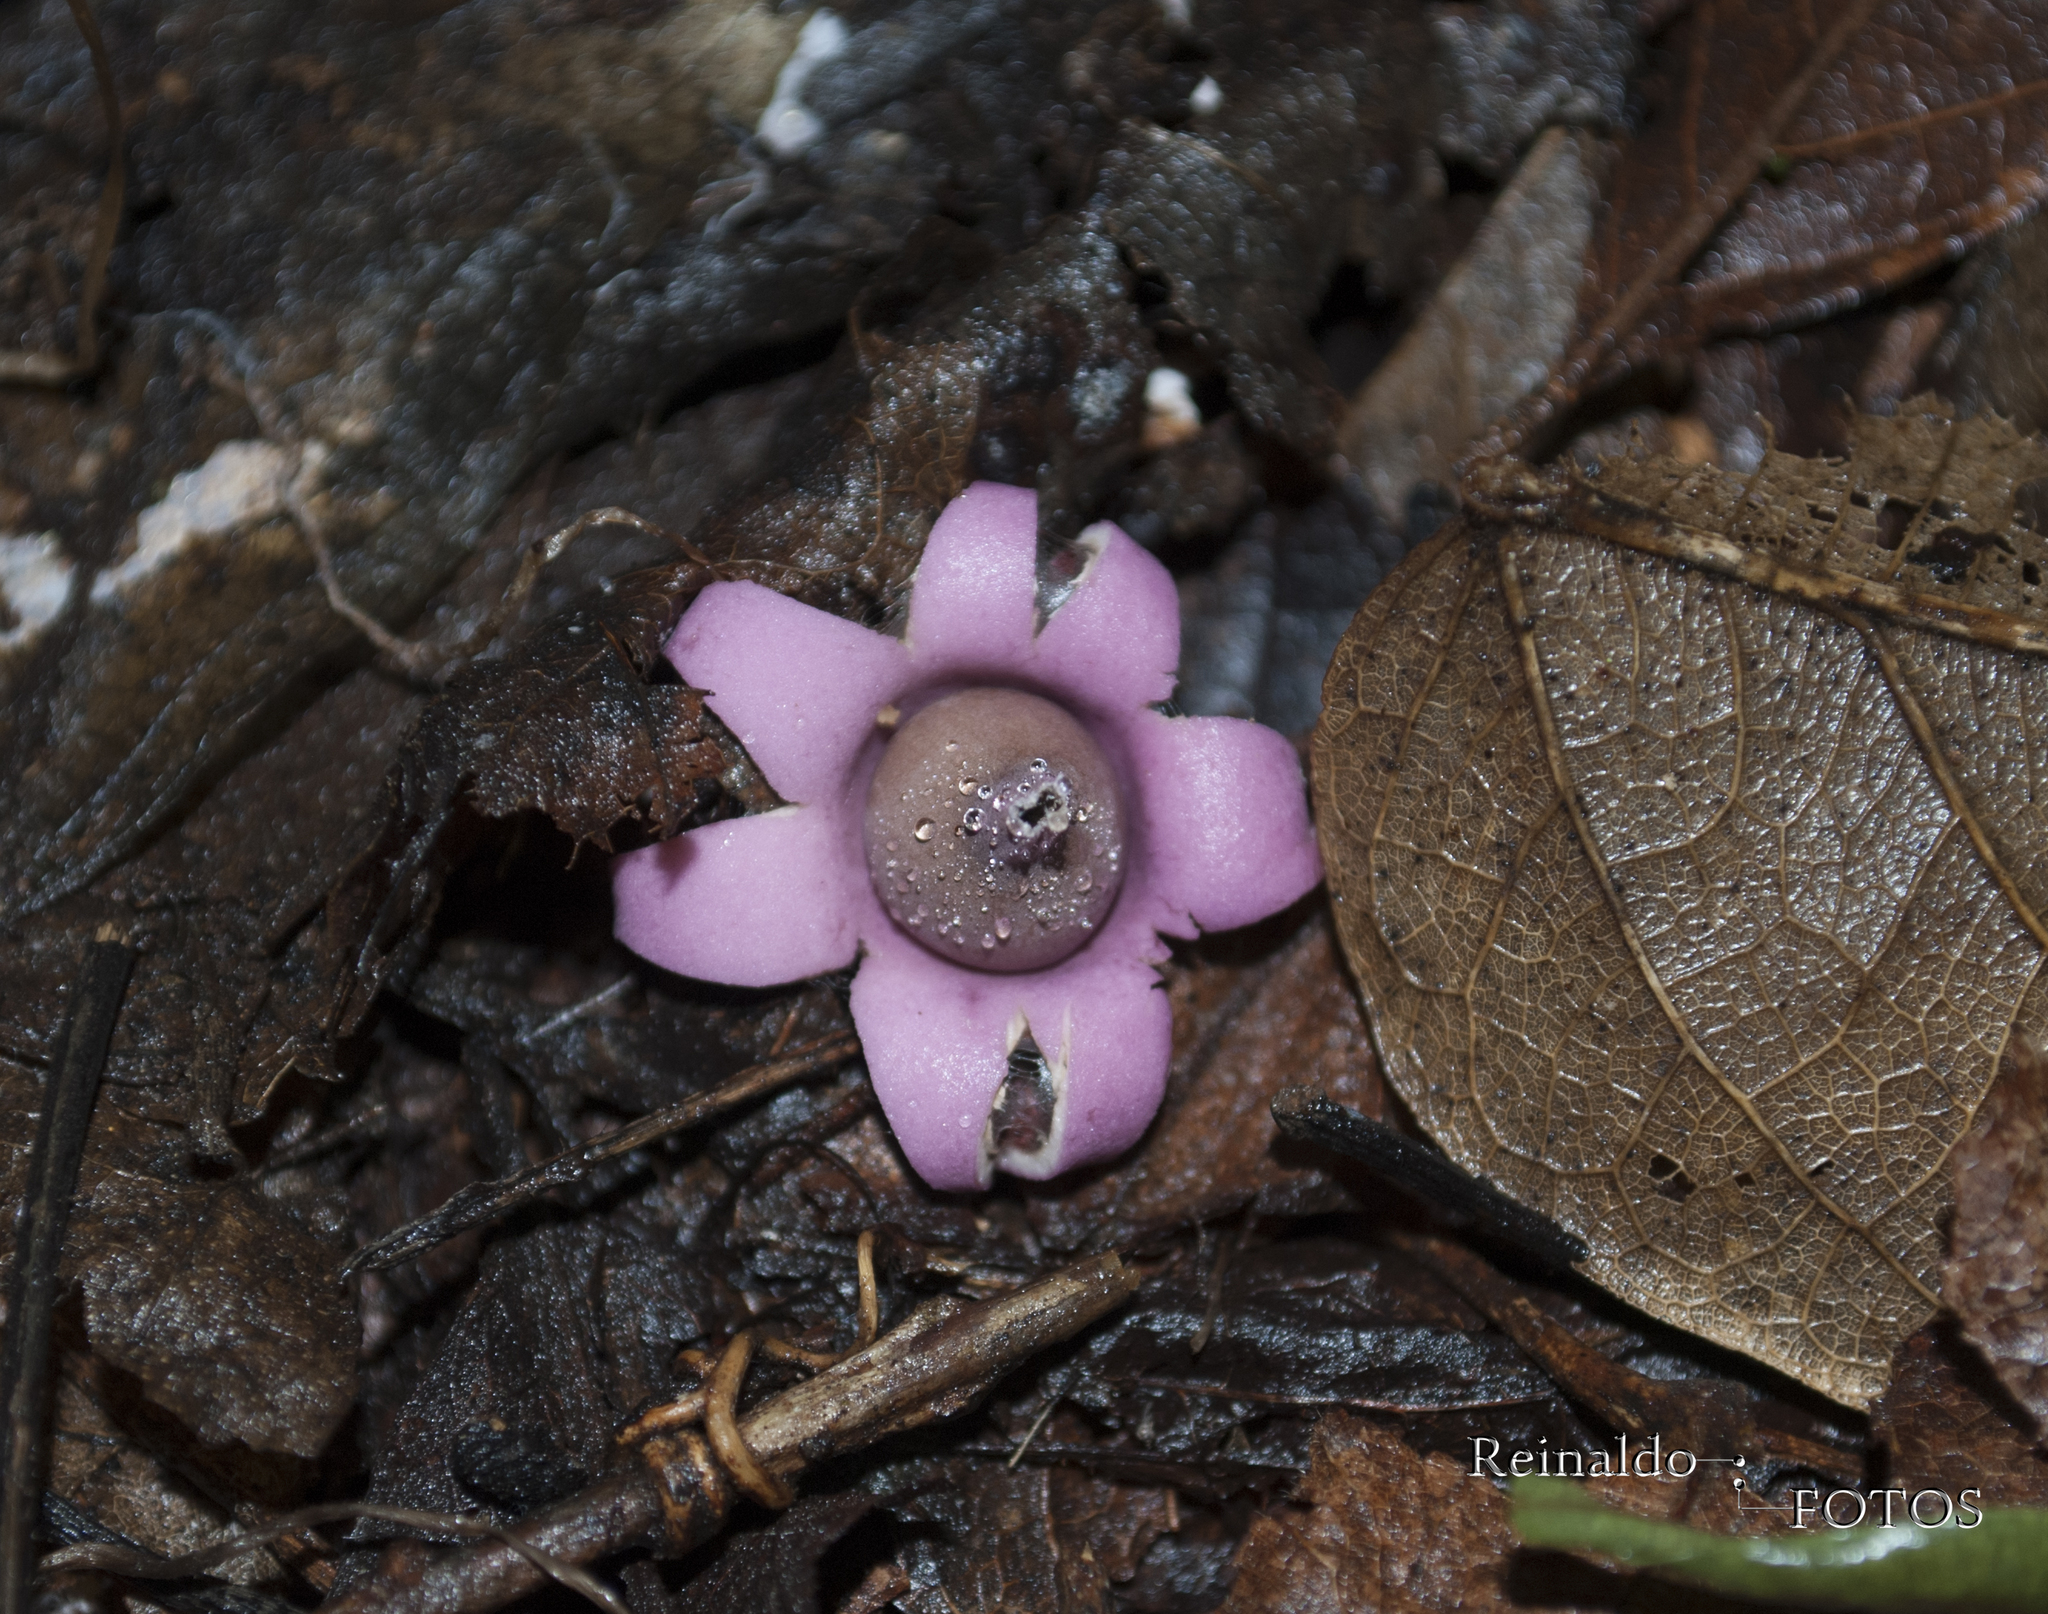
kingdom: Fungi
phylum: Basidiomycota
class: Agaricomycetes
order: Geastrales
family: Geastraceae
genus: Geastrum
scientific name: Geastrum violaceum
